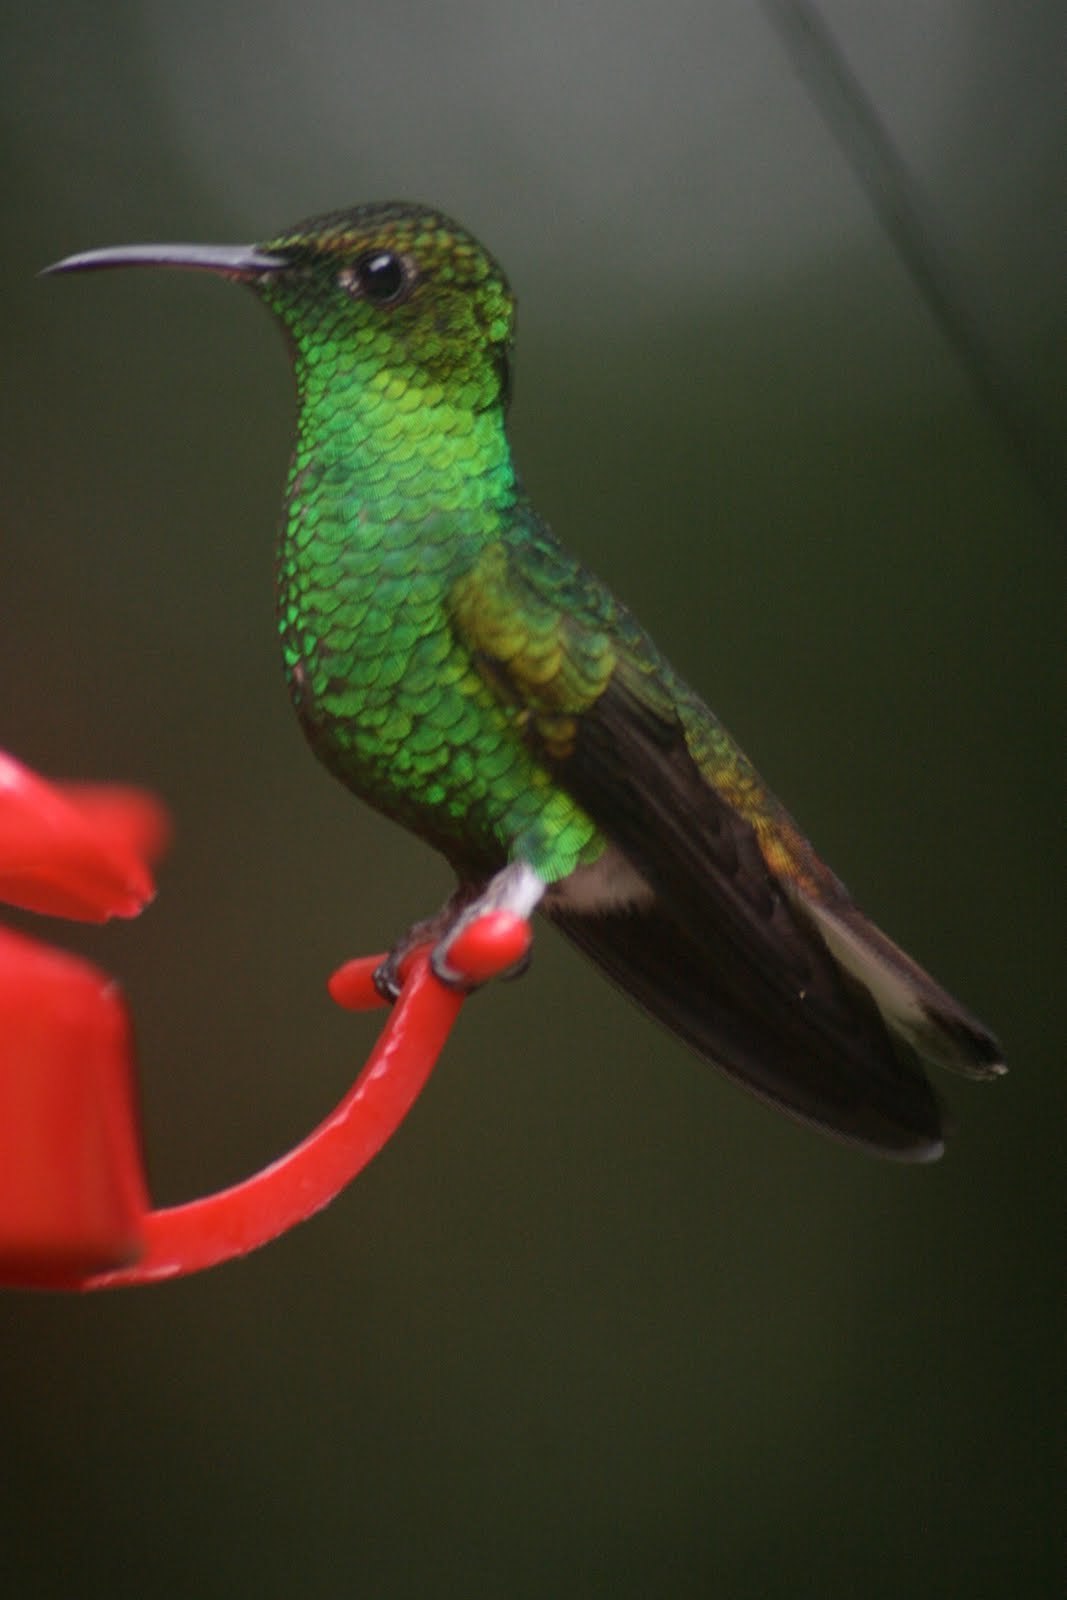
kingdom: Animalia
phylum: Chordata
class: Aves
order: Apodiformes
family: Trochilidae
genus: Microchera
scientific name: Microchera cupreiceps
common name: Coppery-headed emerald
